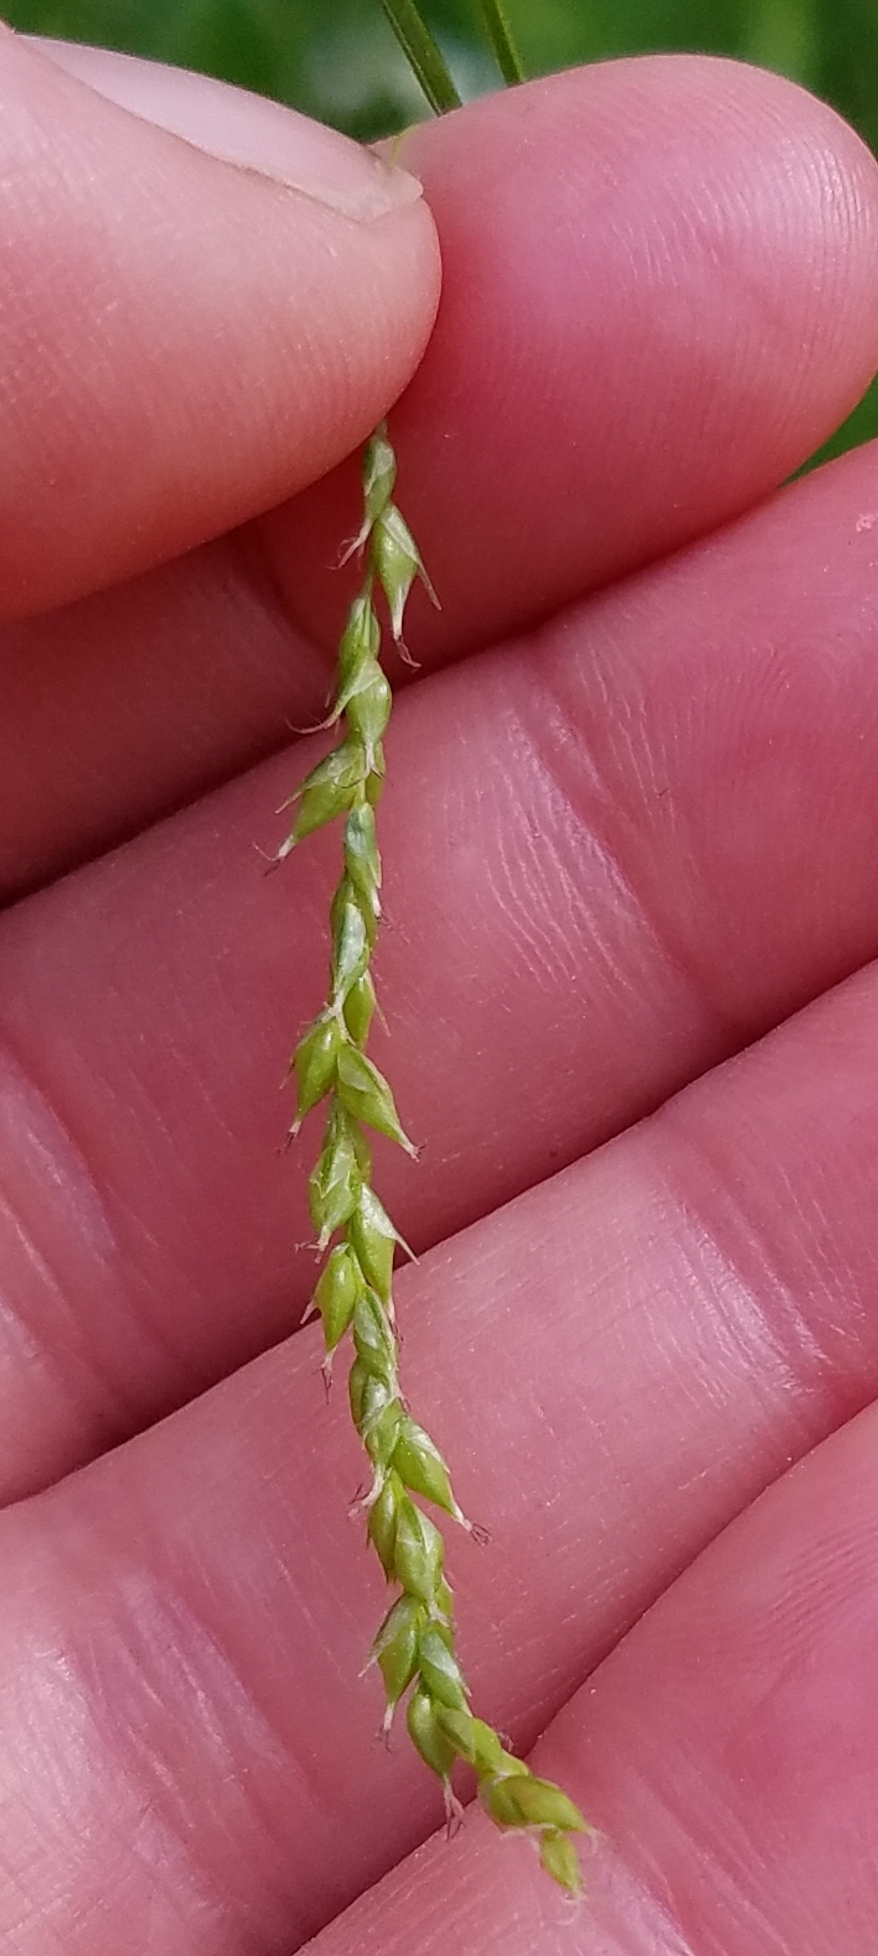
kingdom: Plantae
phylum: Tracheophyta
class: Liliopsida
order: Poales
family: Cyperaceae
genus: Carex
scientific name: Carex arctata
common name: Black sedge
